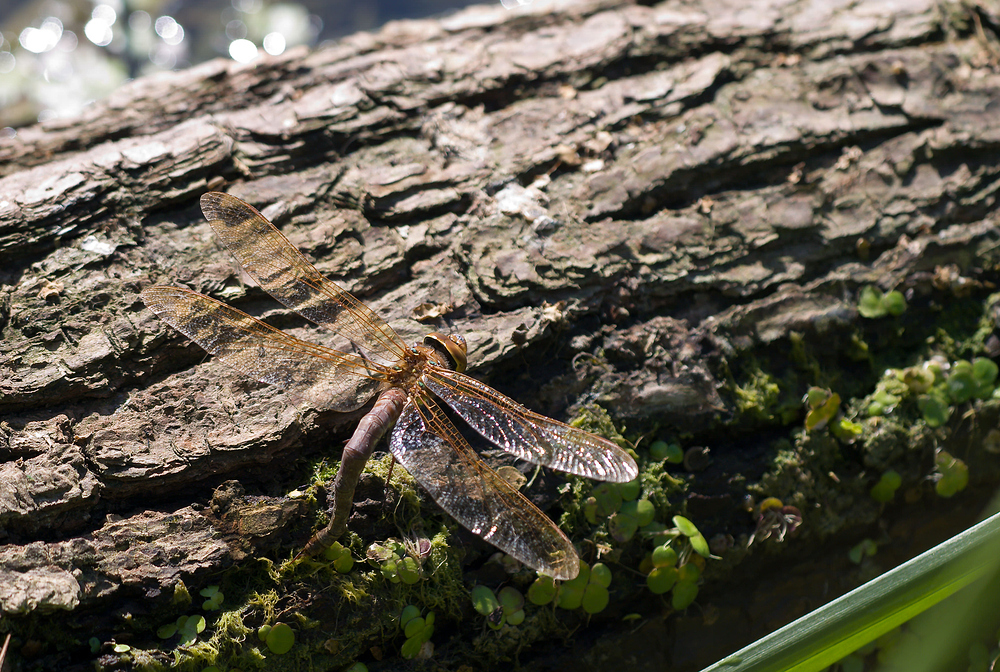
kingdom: Animalia
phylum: Arthropoda
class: Insecta
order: Odonata
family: Aeshnidae
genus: Aeshna
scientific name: Aeshna grandis
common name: Brown hawker
